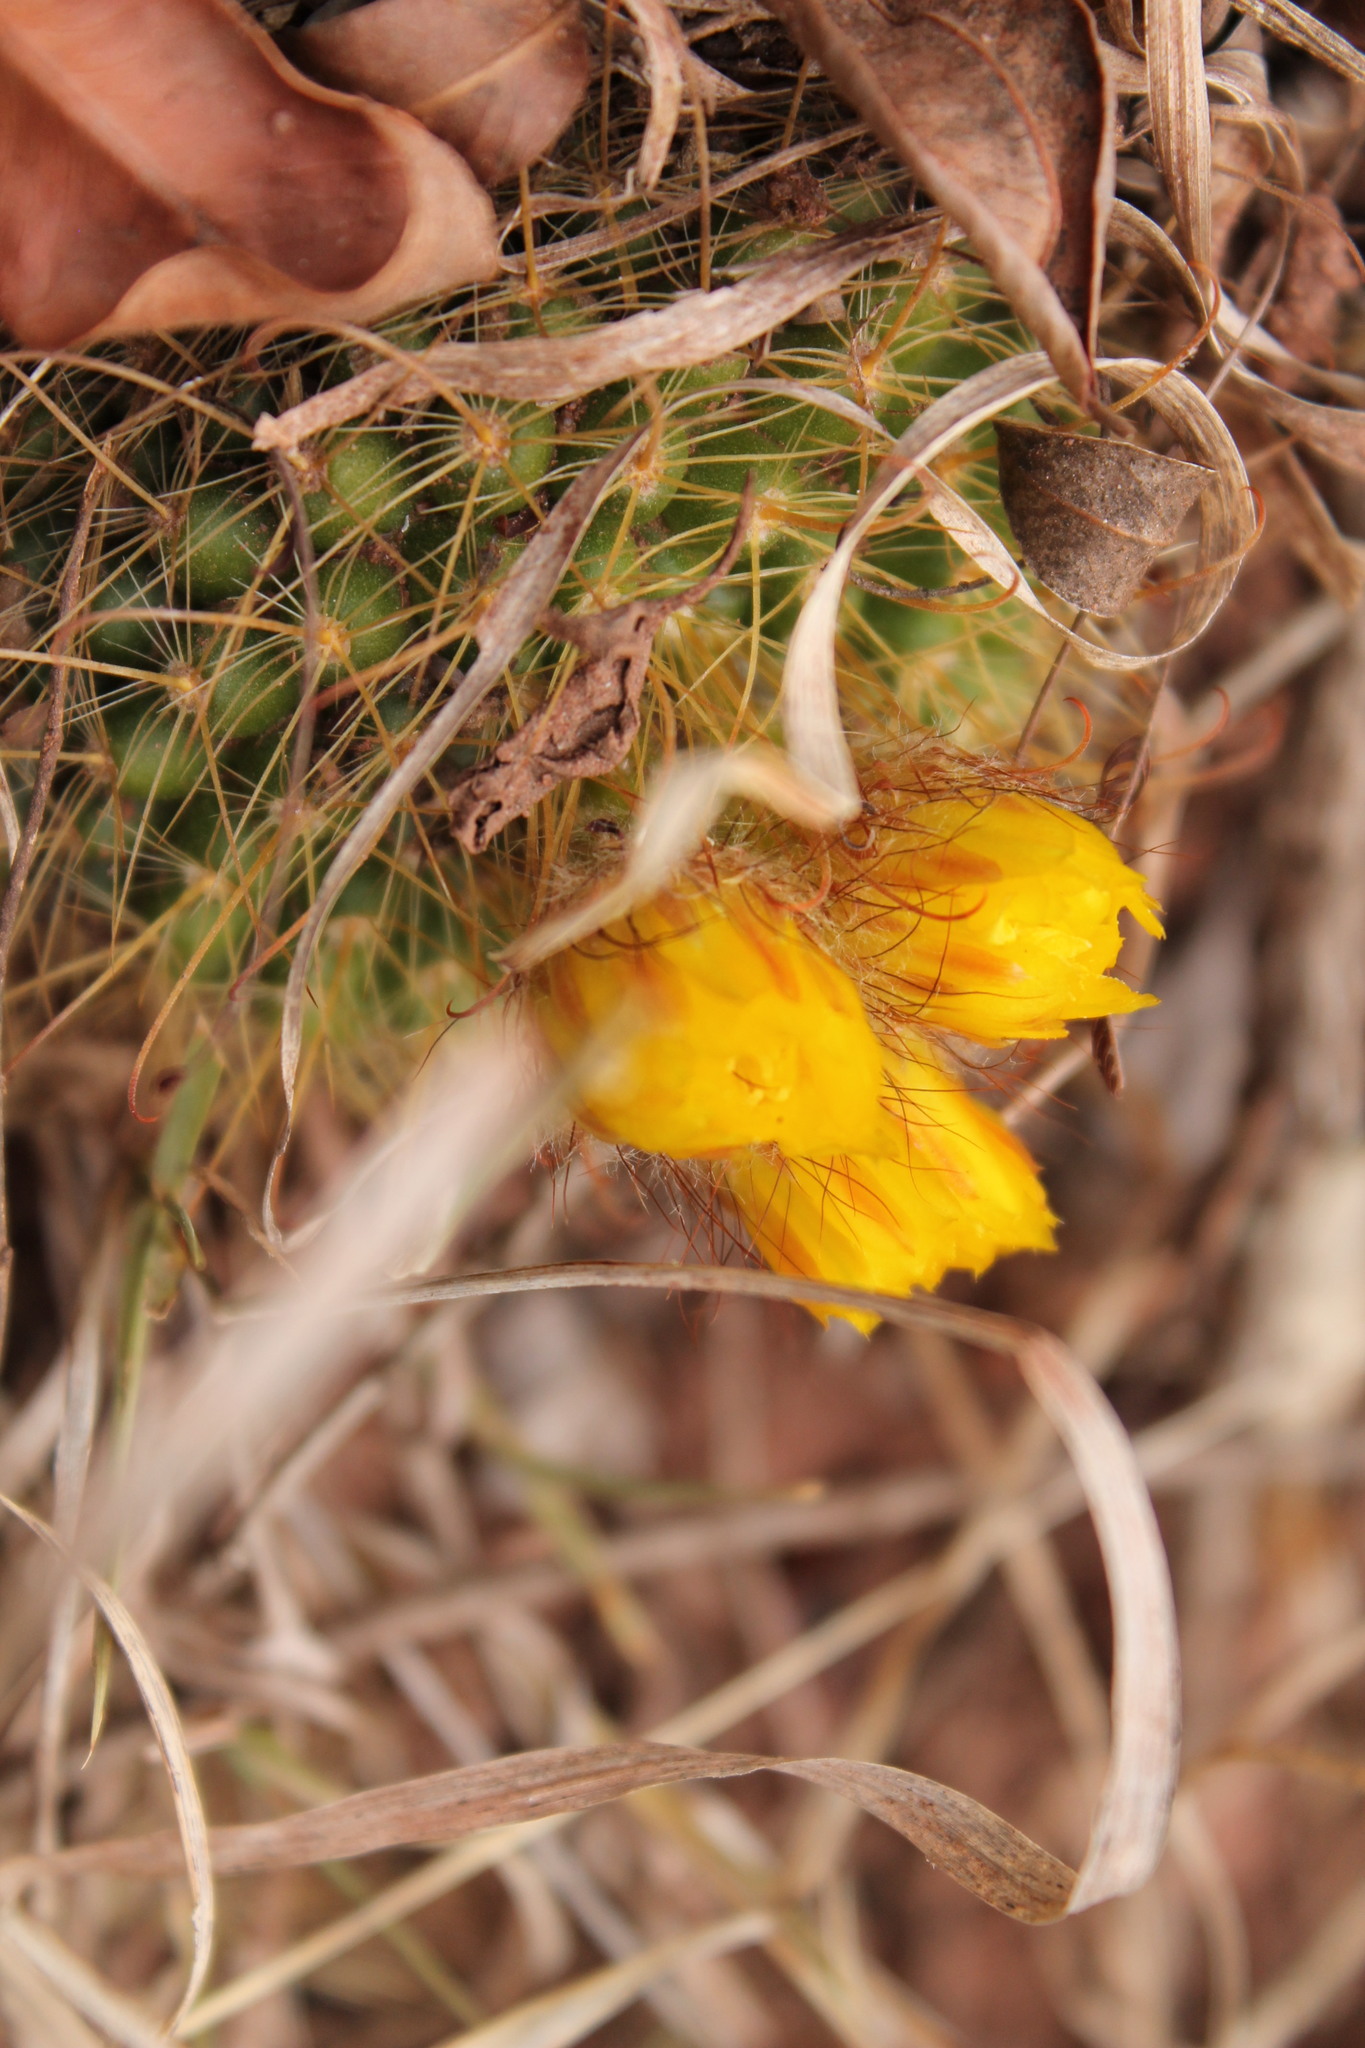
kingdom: Plantae
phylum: Tracheophyta
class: Magnoliopsida
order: Caryophyllales
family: Cactaceae
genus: Parodia
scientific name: Parodia microsperma
